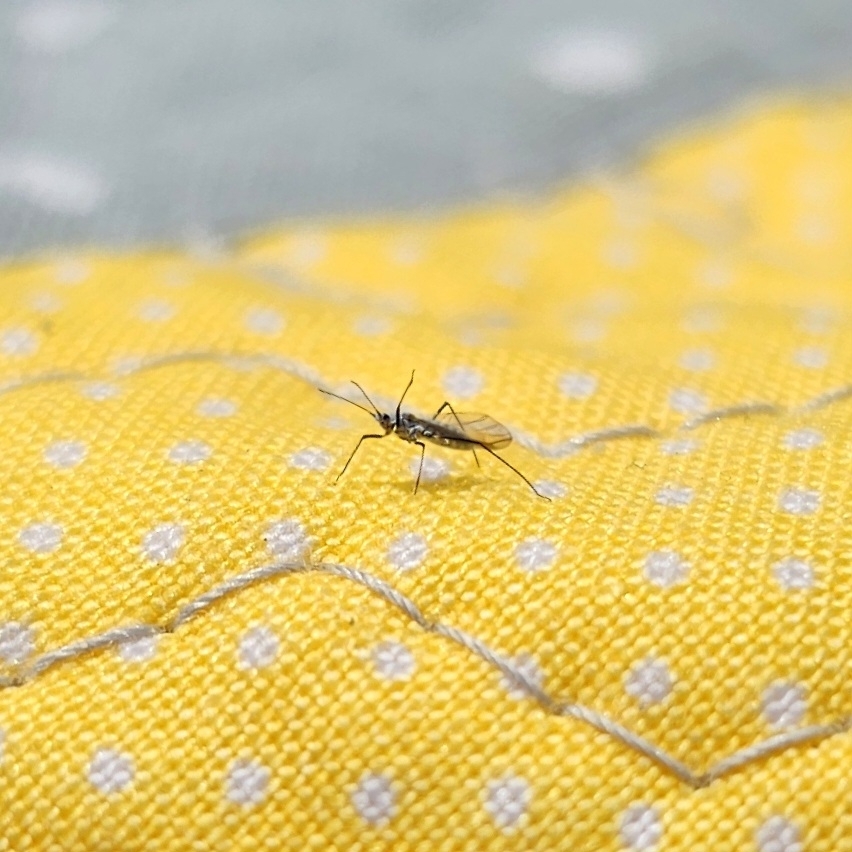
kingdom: Animalia
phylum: Arthropoda
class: Insecta
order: Hemiptera
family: Aphididae
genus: Eulachnus
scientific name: Eulachnus rileyi
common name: Active gray pine needle aphid
